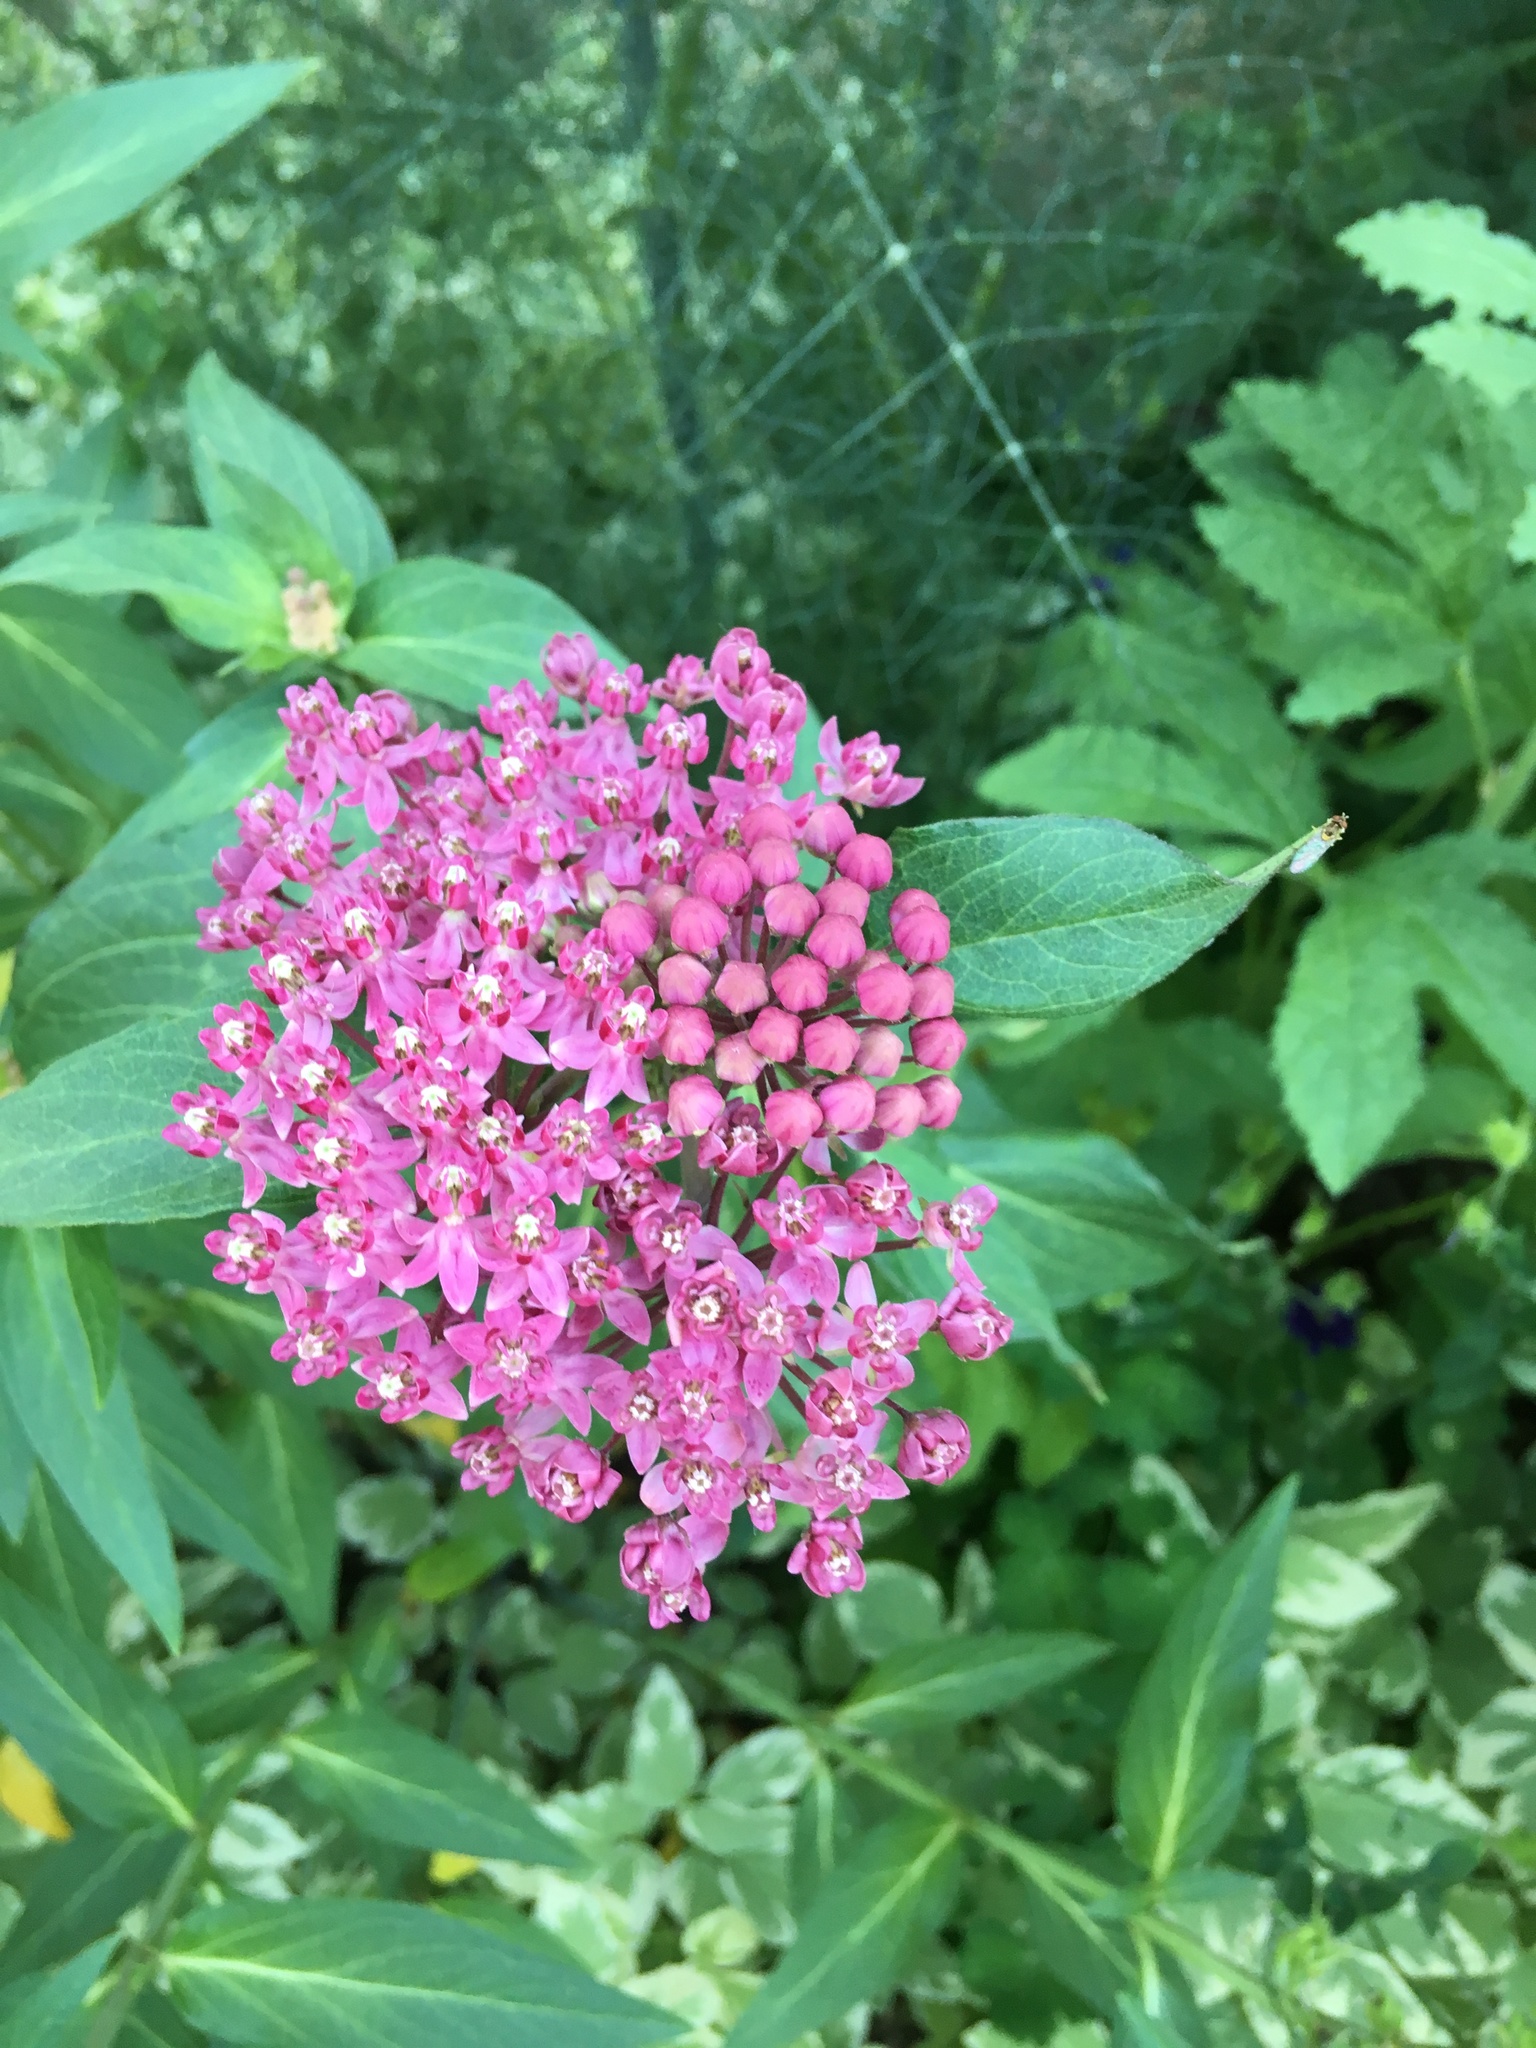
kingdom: Plantae
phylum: Tracheophyta
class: Magnoliopsida
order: Gentianales
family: Apocynaceae
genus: Asclepias
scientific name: Asclepias incarnata
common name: Swamp milkweed
